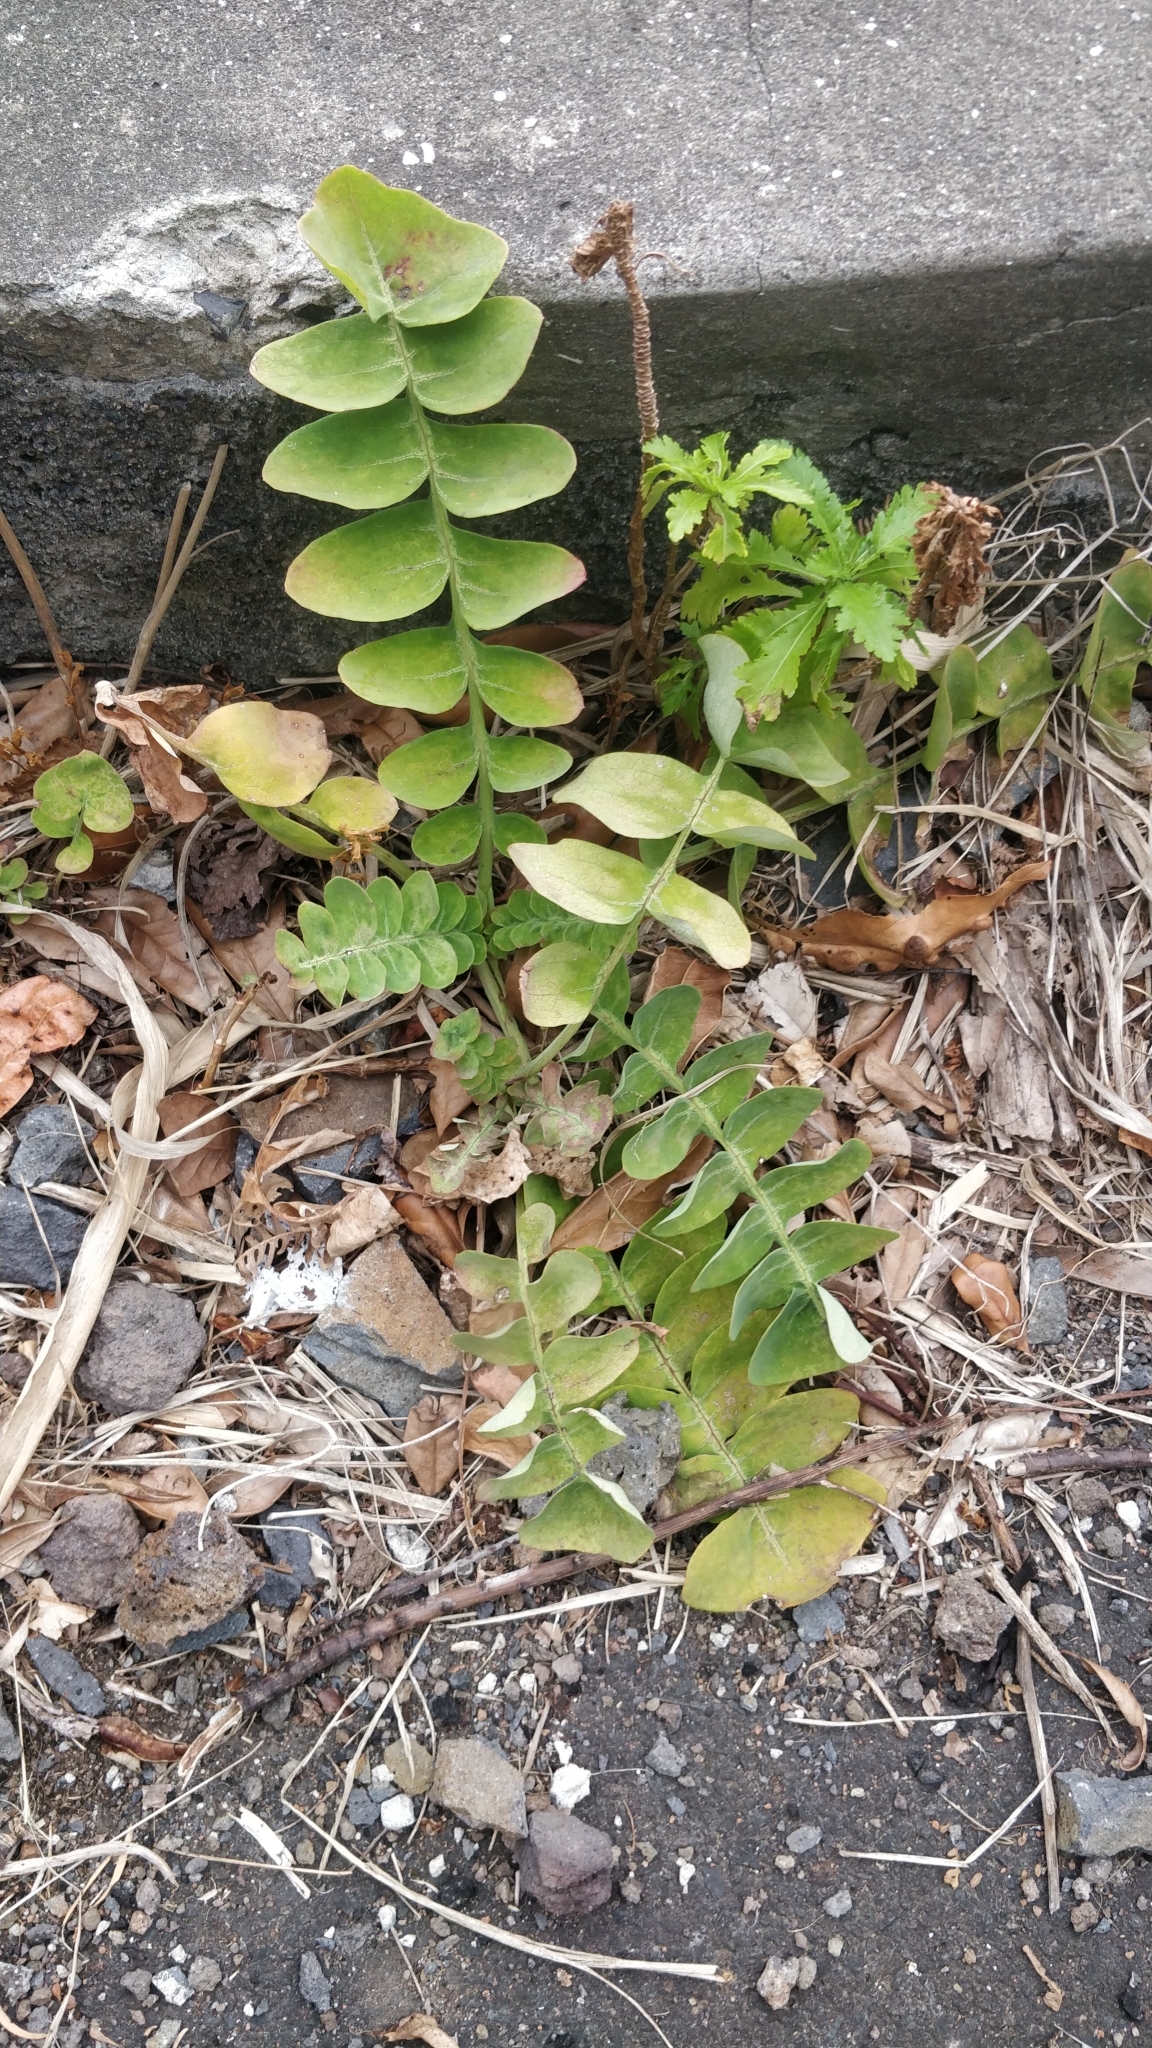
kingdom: Plantae
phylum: Tracheophyta
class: Magnoliopsida
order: Asterales
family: Asteraceae
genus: Sonchus
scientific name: Sonchus latifolius
